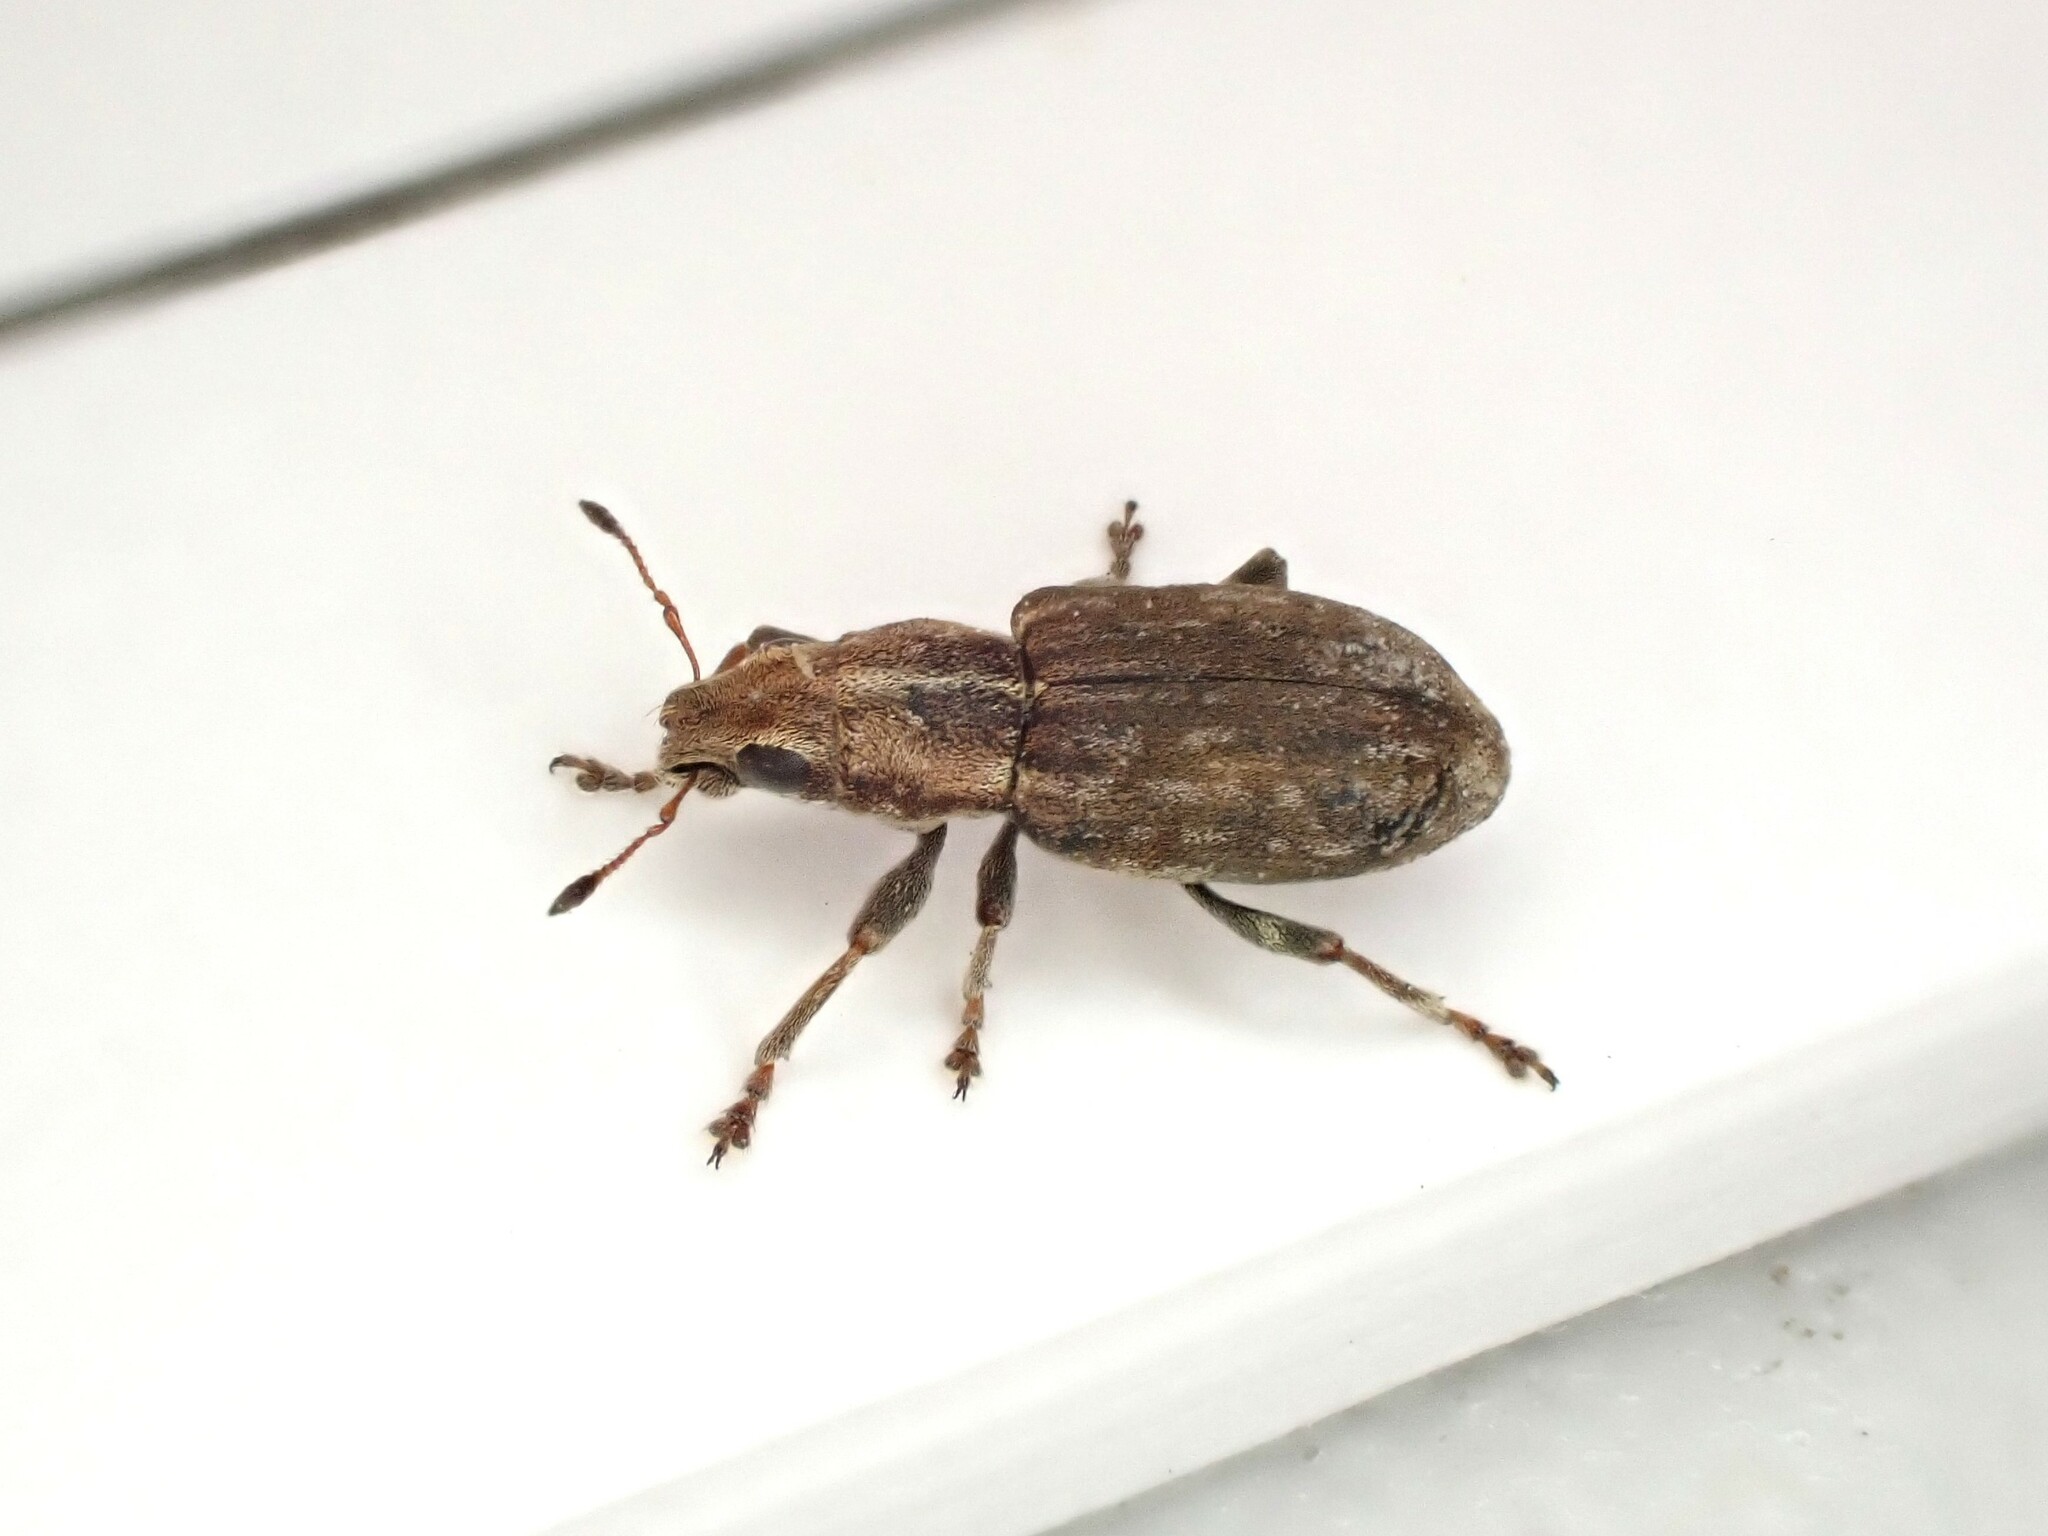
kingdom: Animalia
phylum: Arthropoda
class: Insecta
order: Coleoptera
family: Curculionidae
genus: Sitona
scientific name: Sitona obsoletus
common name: Weevil
